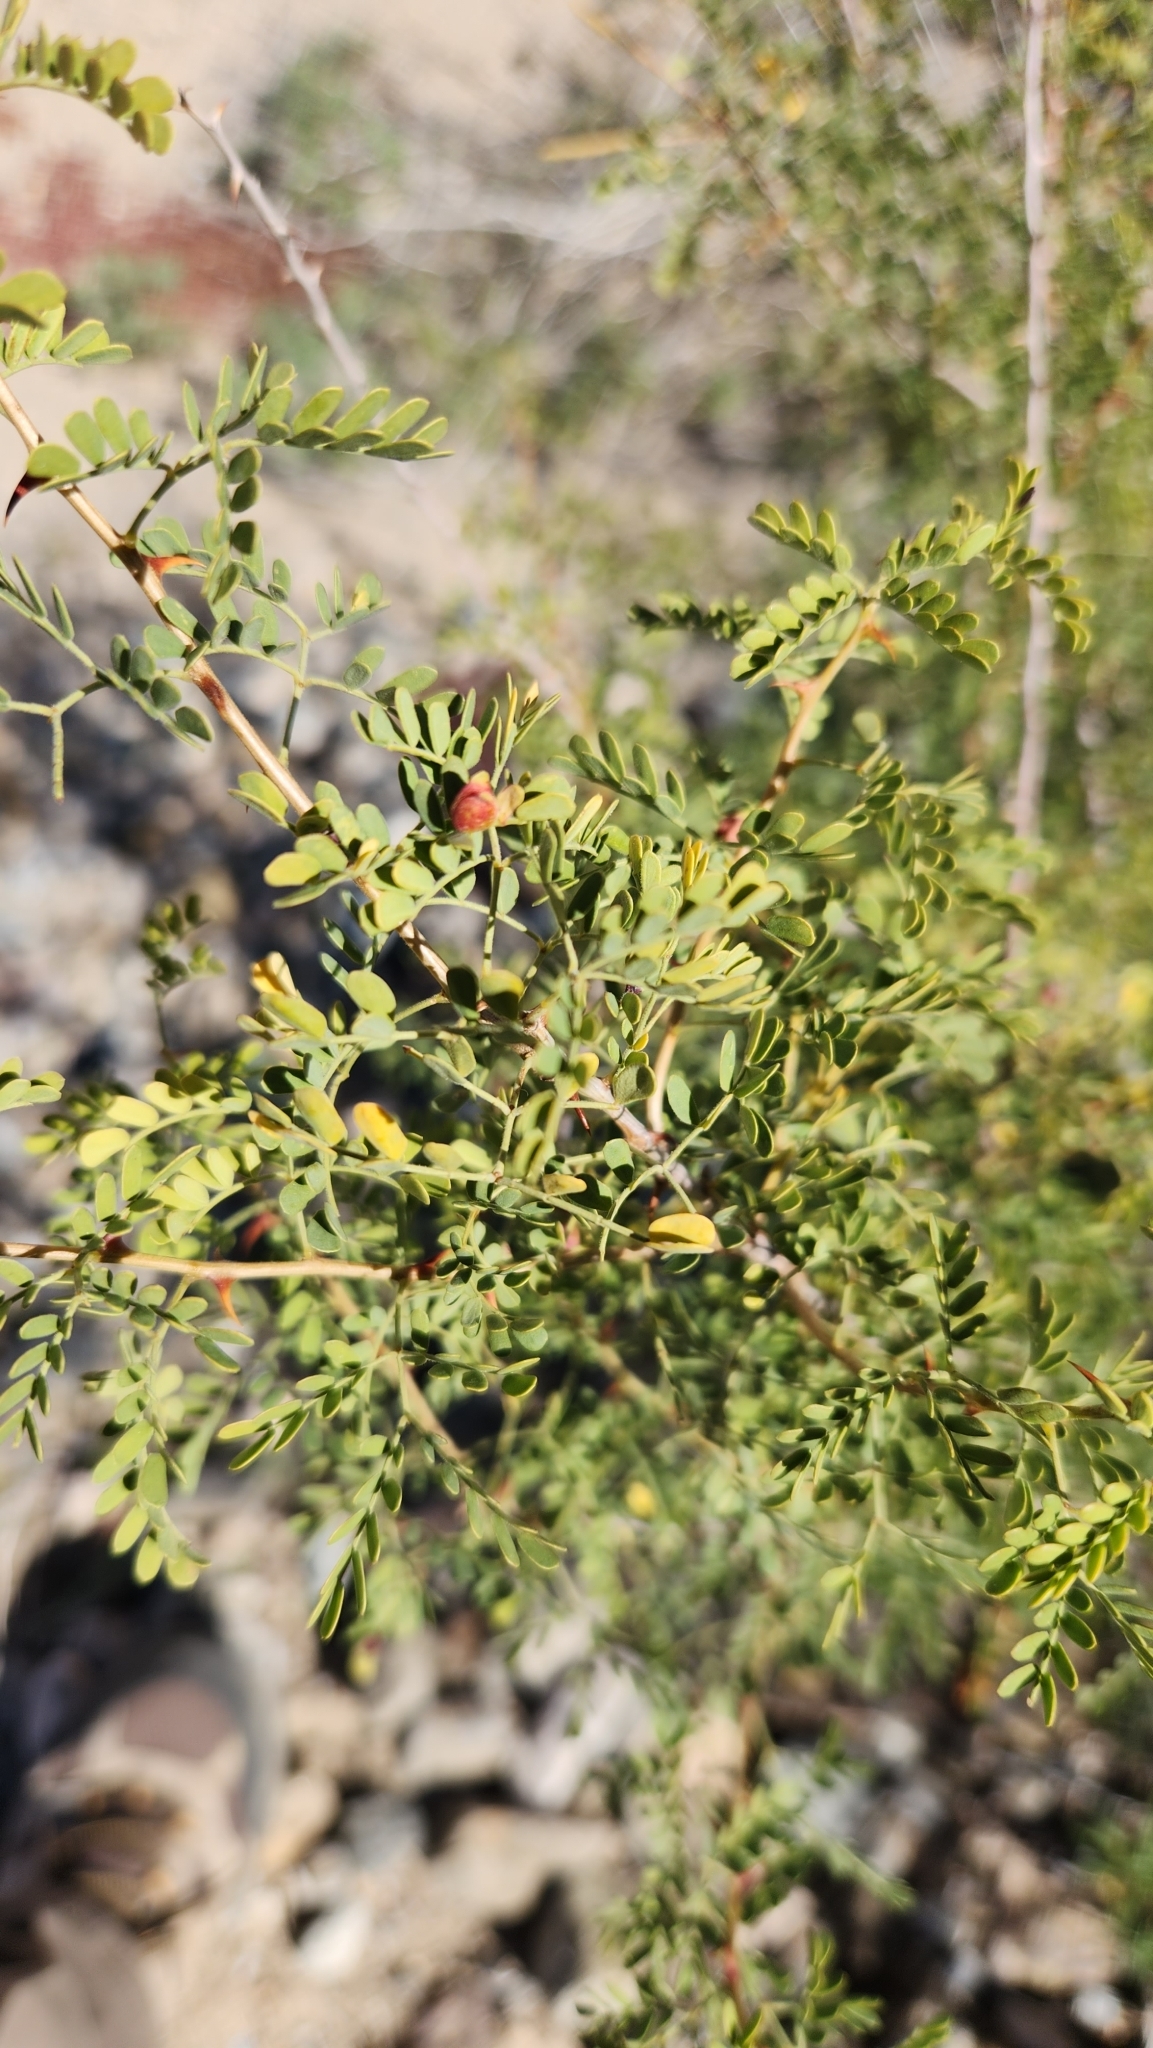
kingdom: Plantae
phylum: Tracheophyta
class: Magnoliopsida
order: Fabales
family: Fabaceae
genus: Senegalia
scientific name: Senegalia greggii
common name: Texas-mimosa
